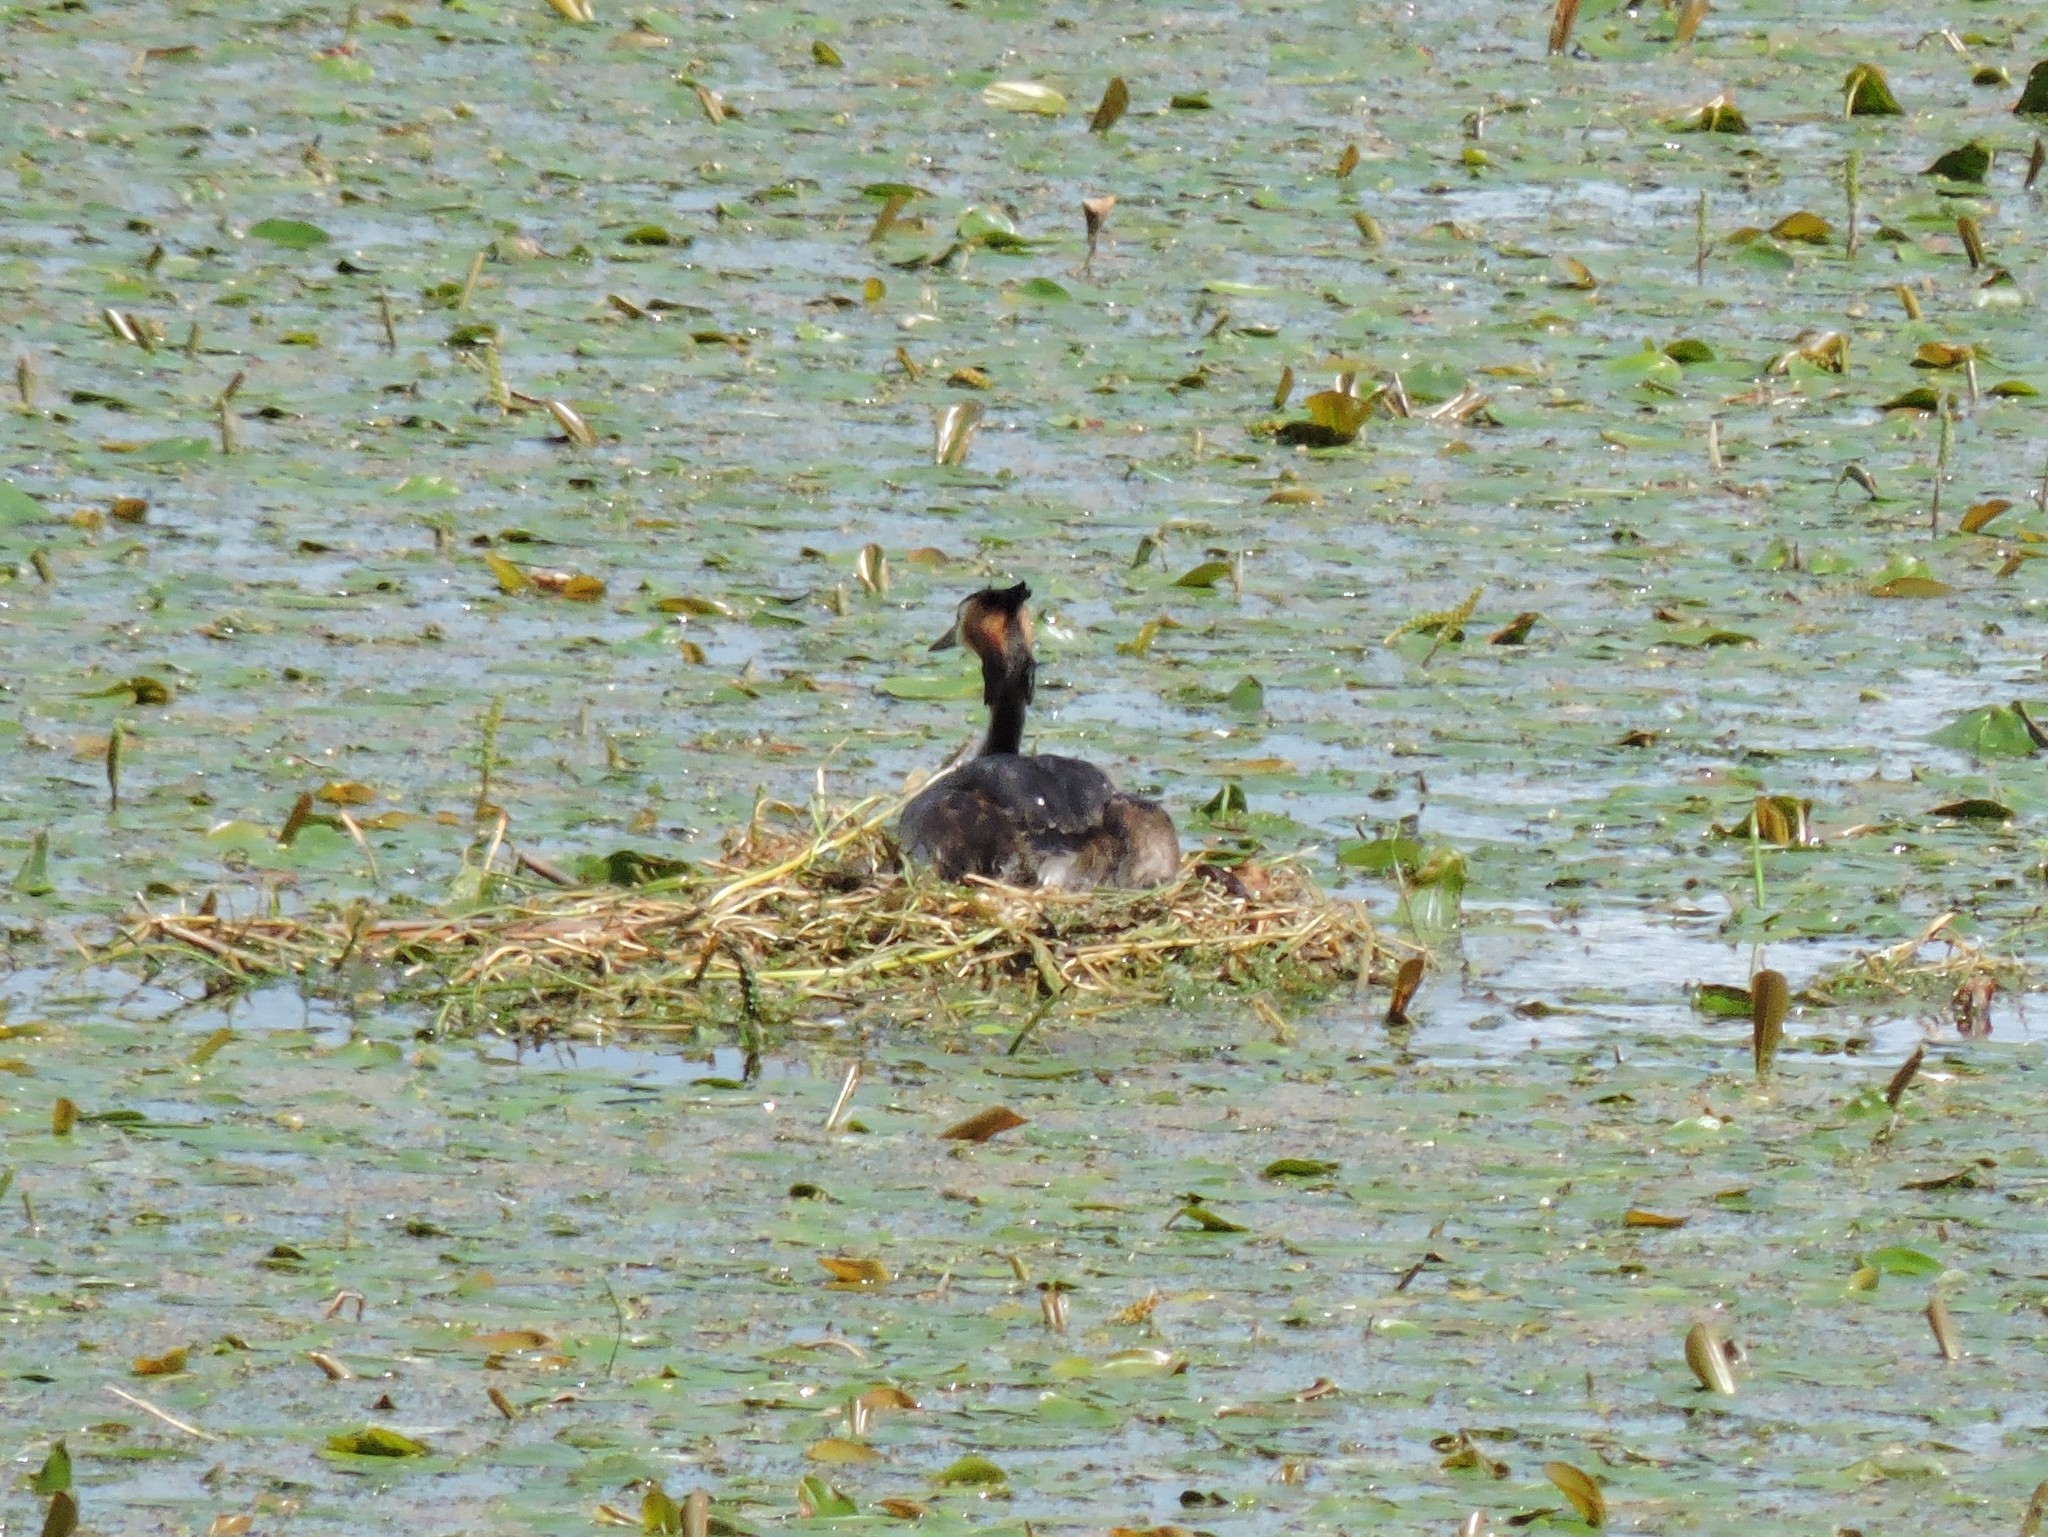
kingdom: Animalia
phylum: Chordata
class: Aves
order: Podicipediformes
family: Podicipedidae
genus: Podiceps
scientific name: Podiceps cristatus
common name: Great crested grebe
